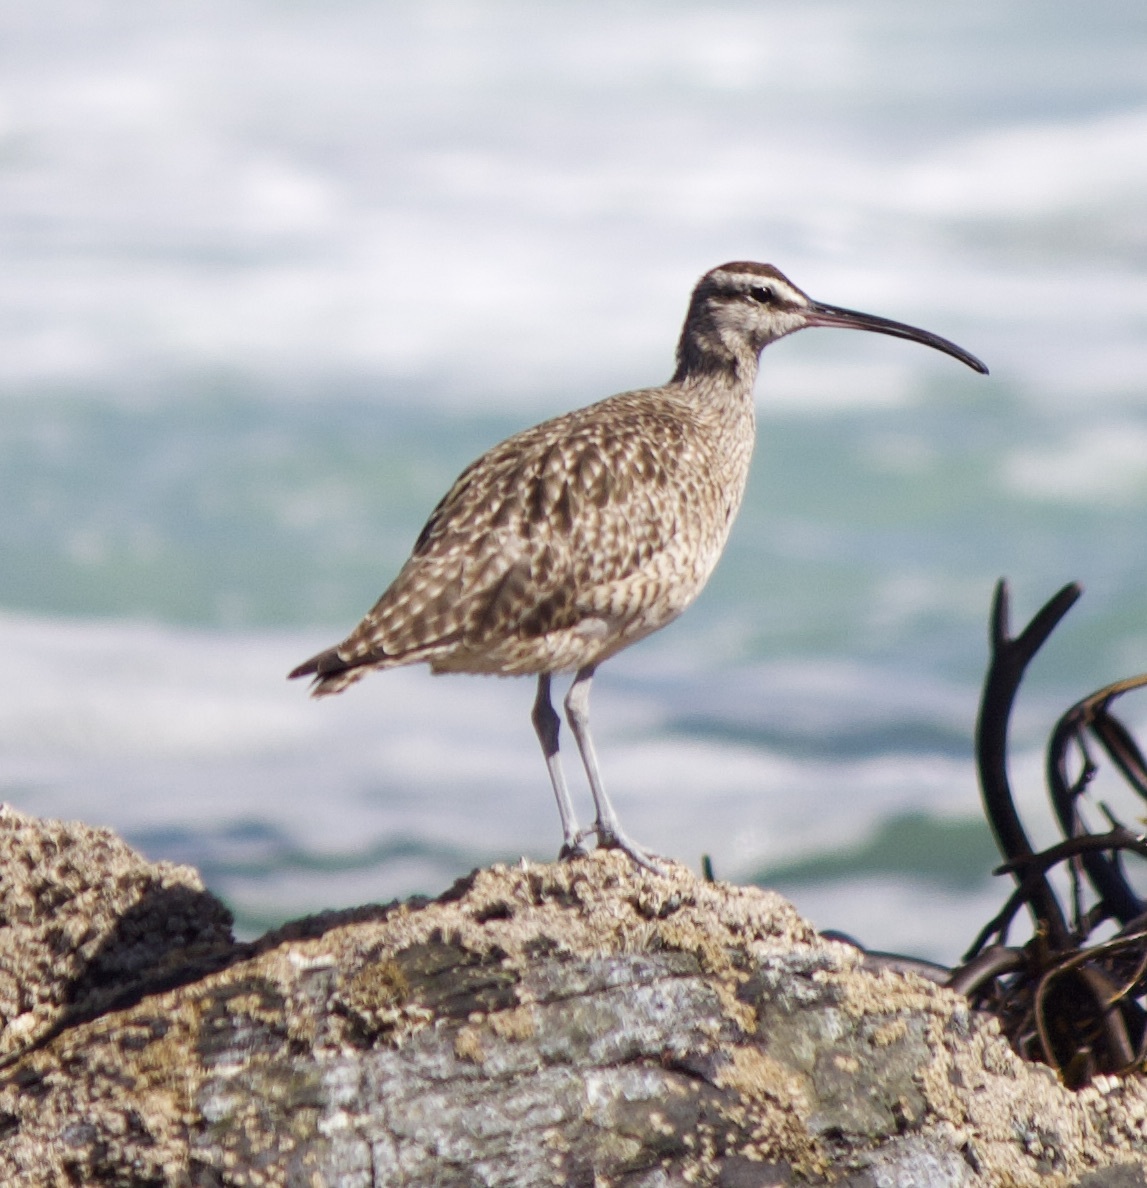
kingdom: Animalia
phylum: Chordata
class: Aves
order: Charadriiformes
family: Scolopacidae
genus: Numenius
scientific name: Numenius phaeopus
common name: Whimbrel
